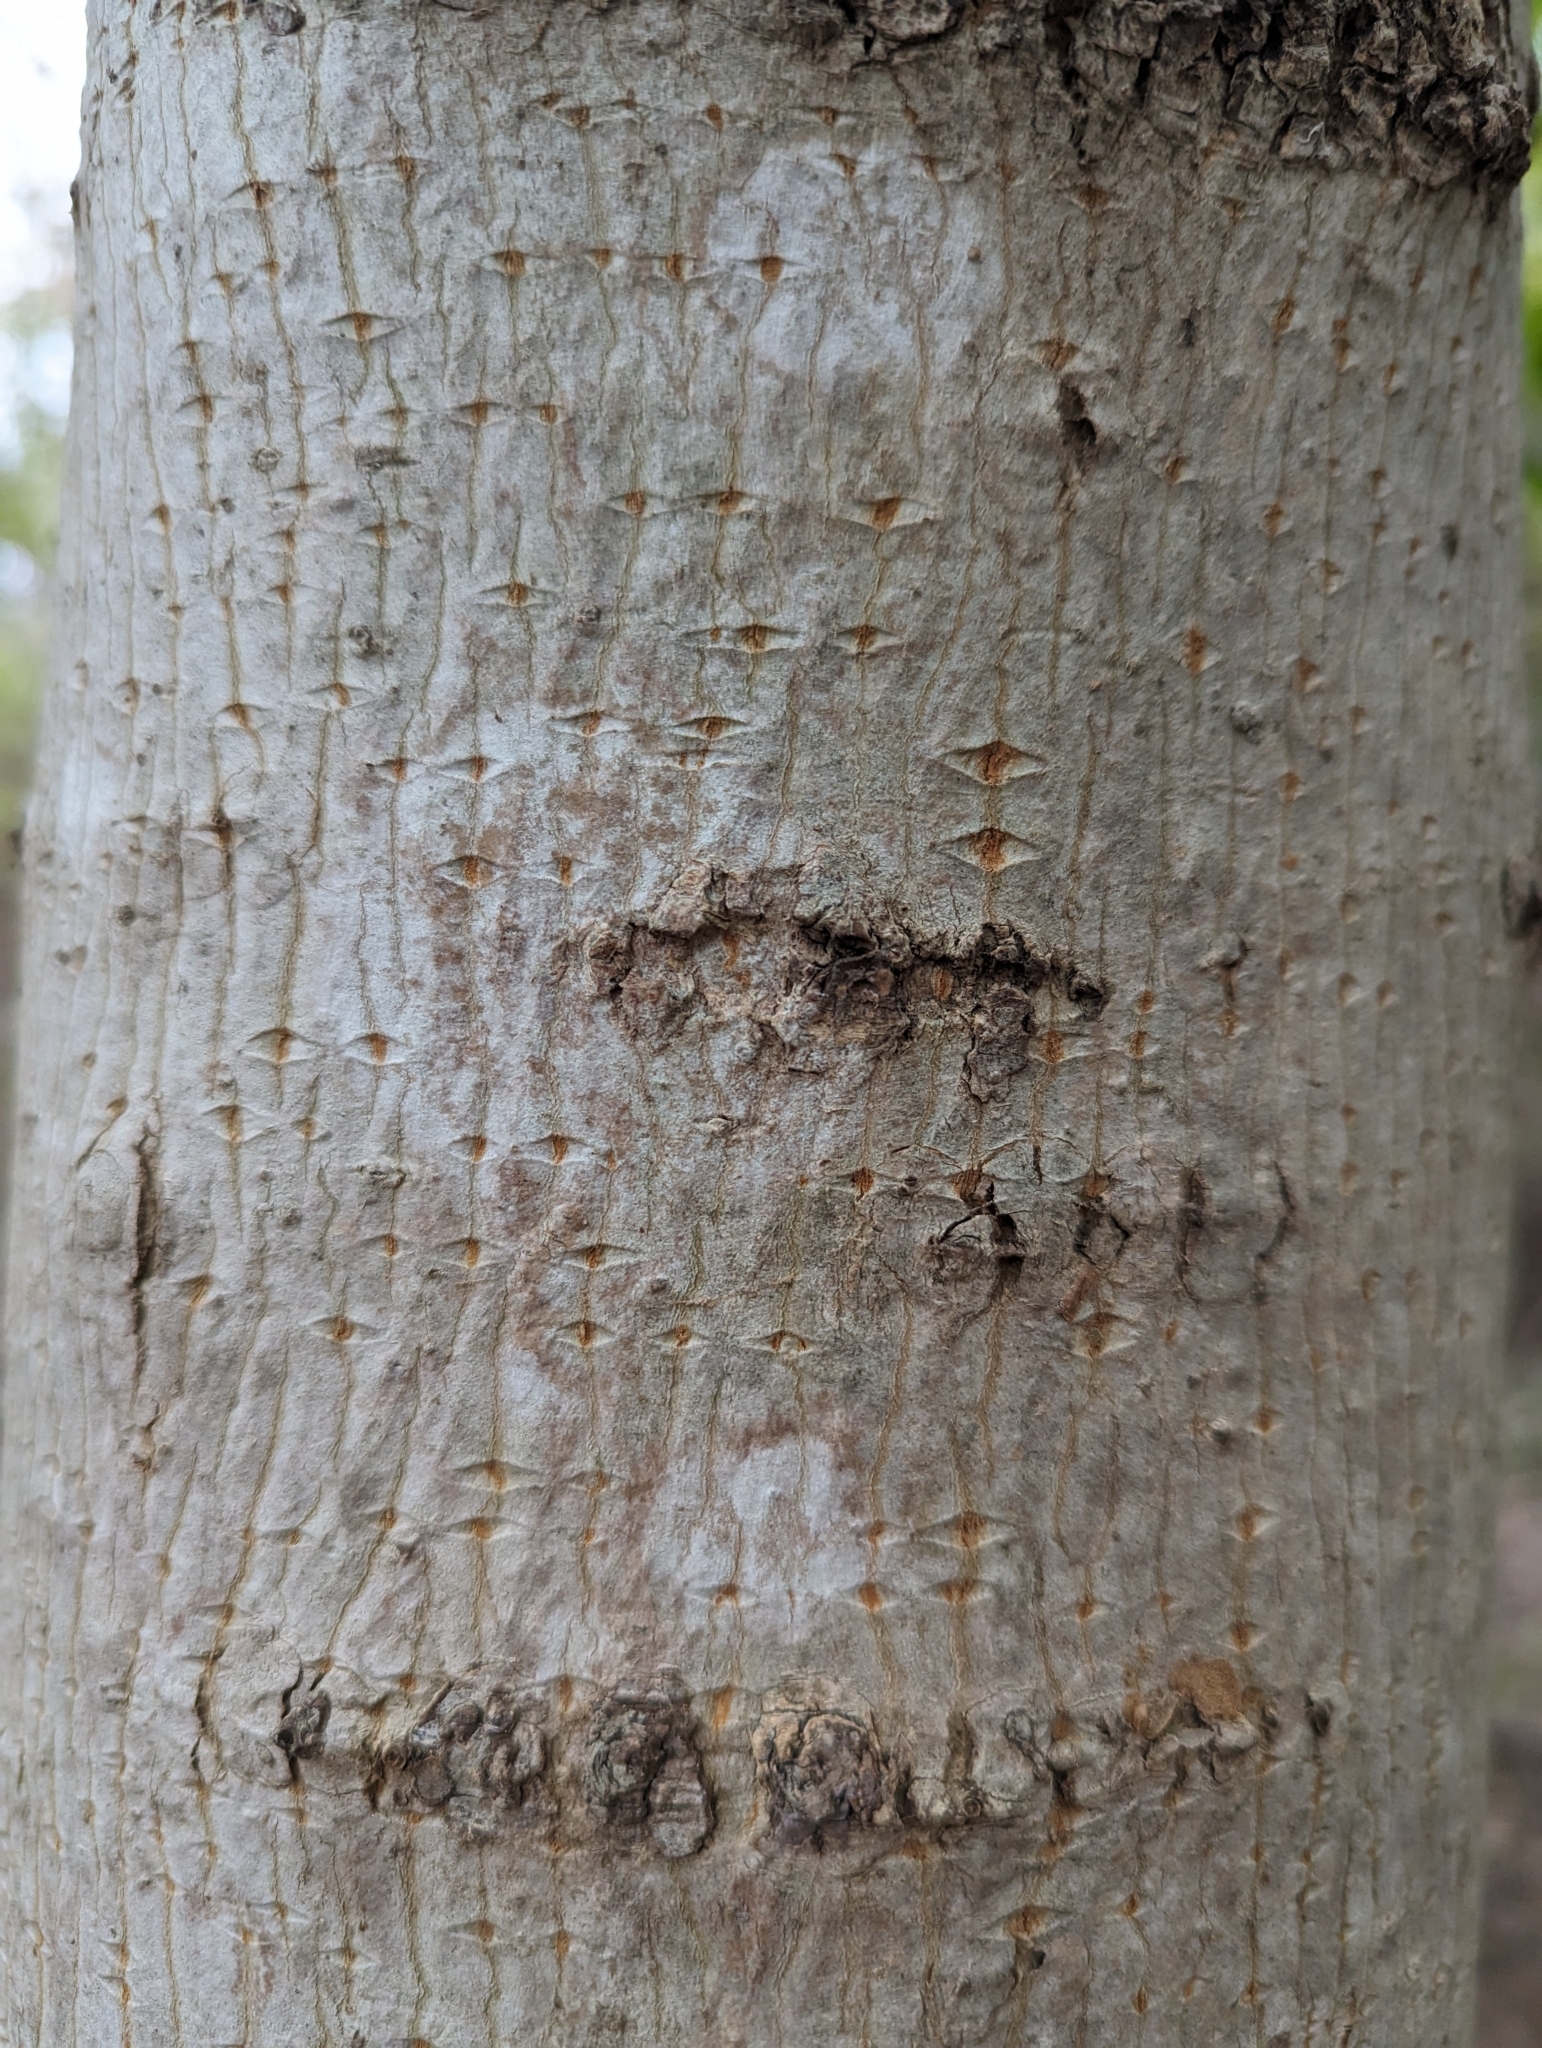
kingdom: Plantae
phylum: Tracheophyta
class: Magnoliopsida
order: Sapindales
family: Sapindaceae
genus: Acer
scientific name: Acer saccharum
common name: Sugar maple
